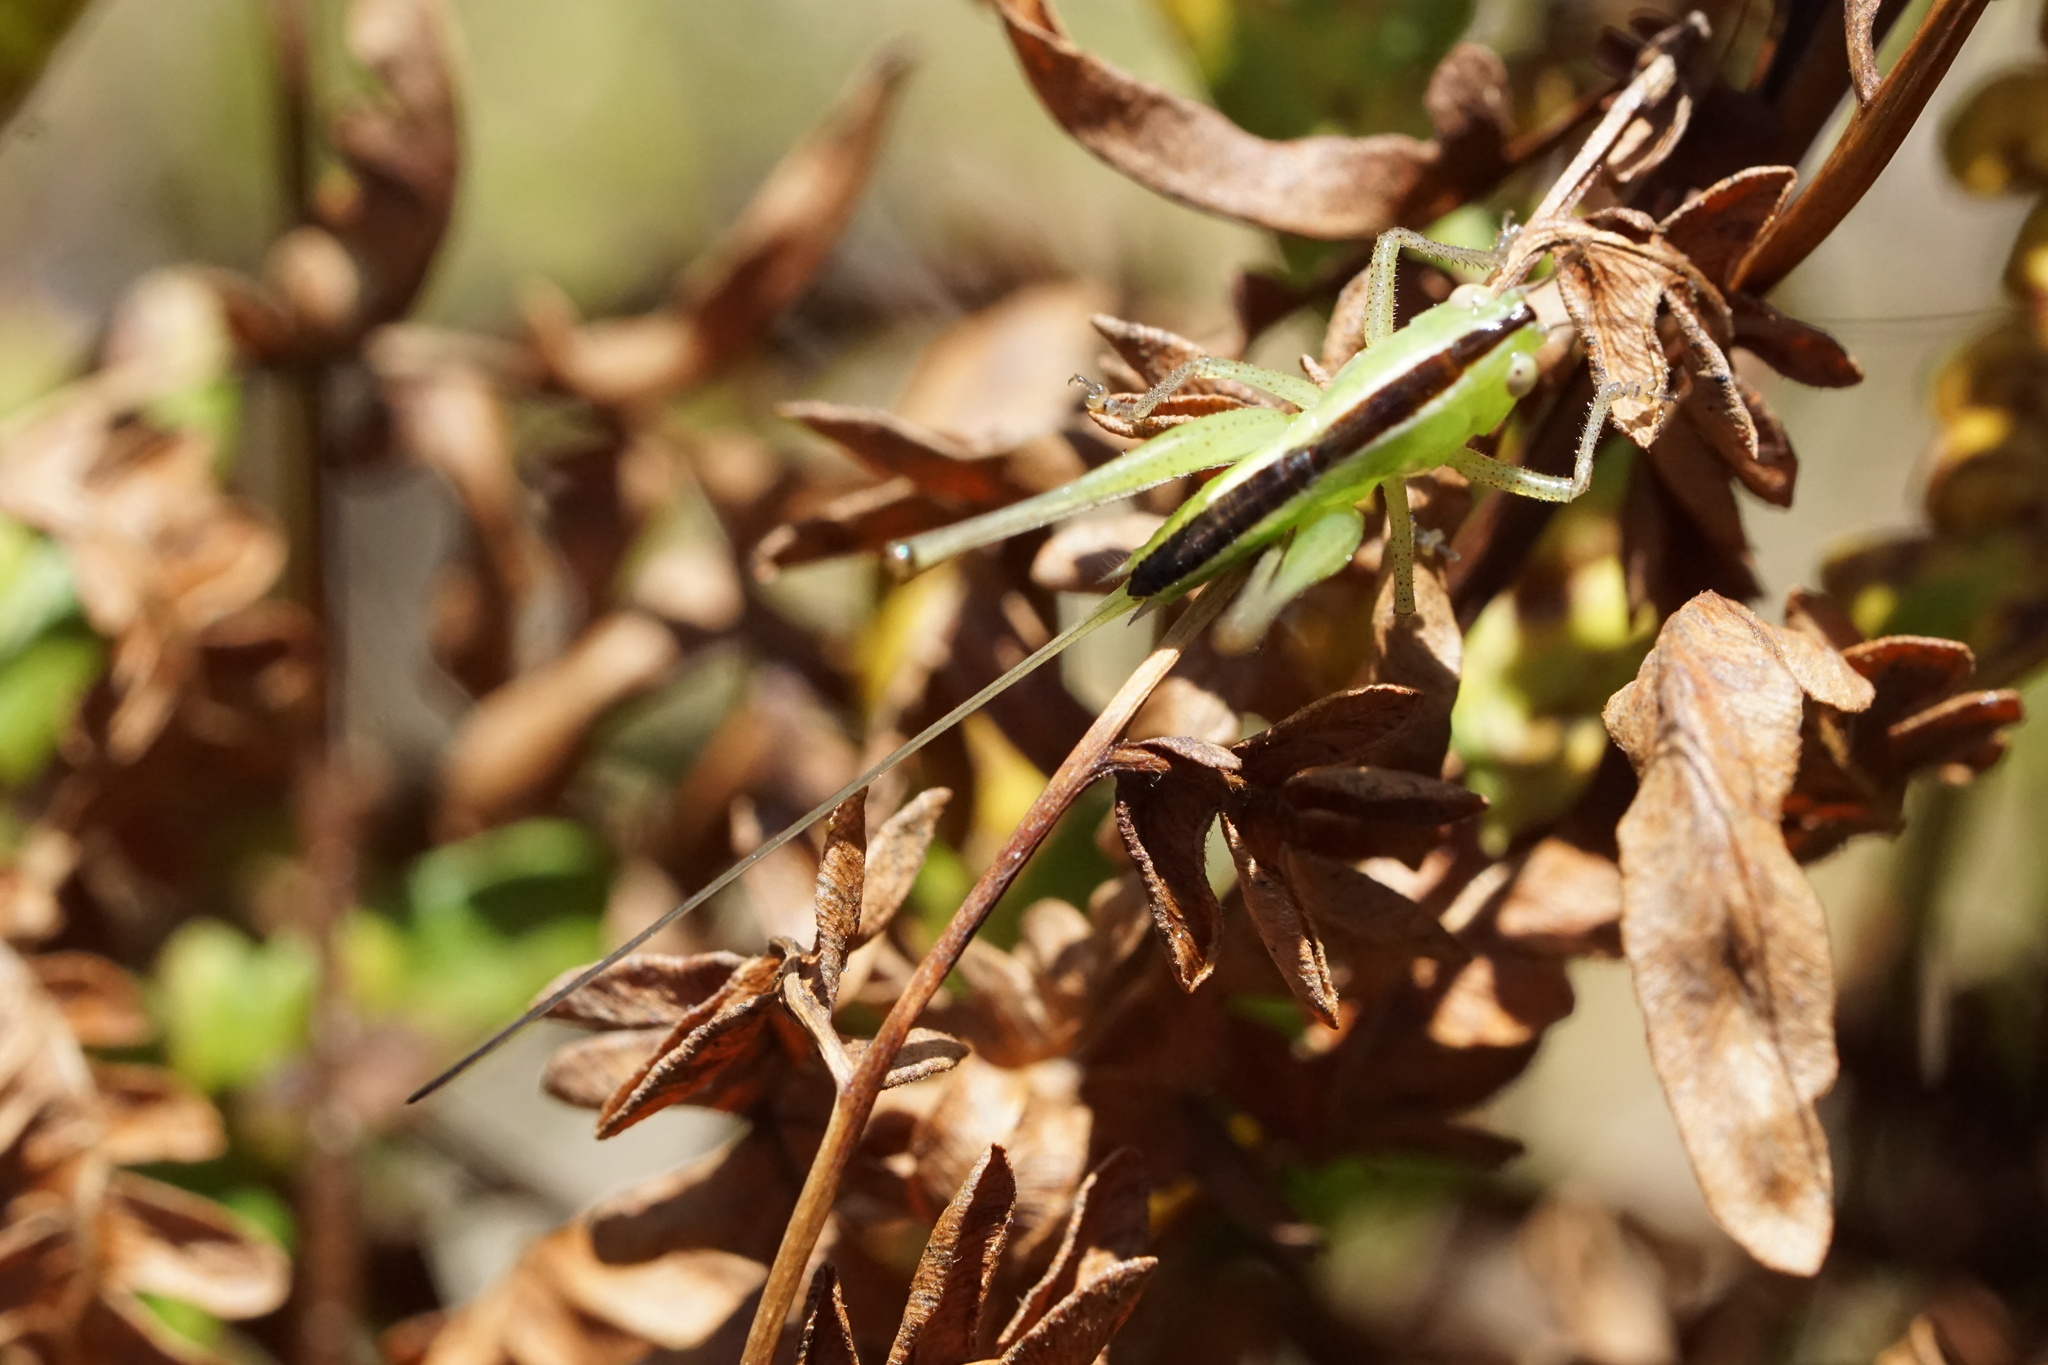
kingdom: Animalia
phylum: Arthropoda
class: Insecta
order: Orthoptera
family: Tettigoniidae
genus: Conocephalus
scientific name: Conocephalus strictus
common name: Straight-lanced katydid
